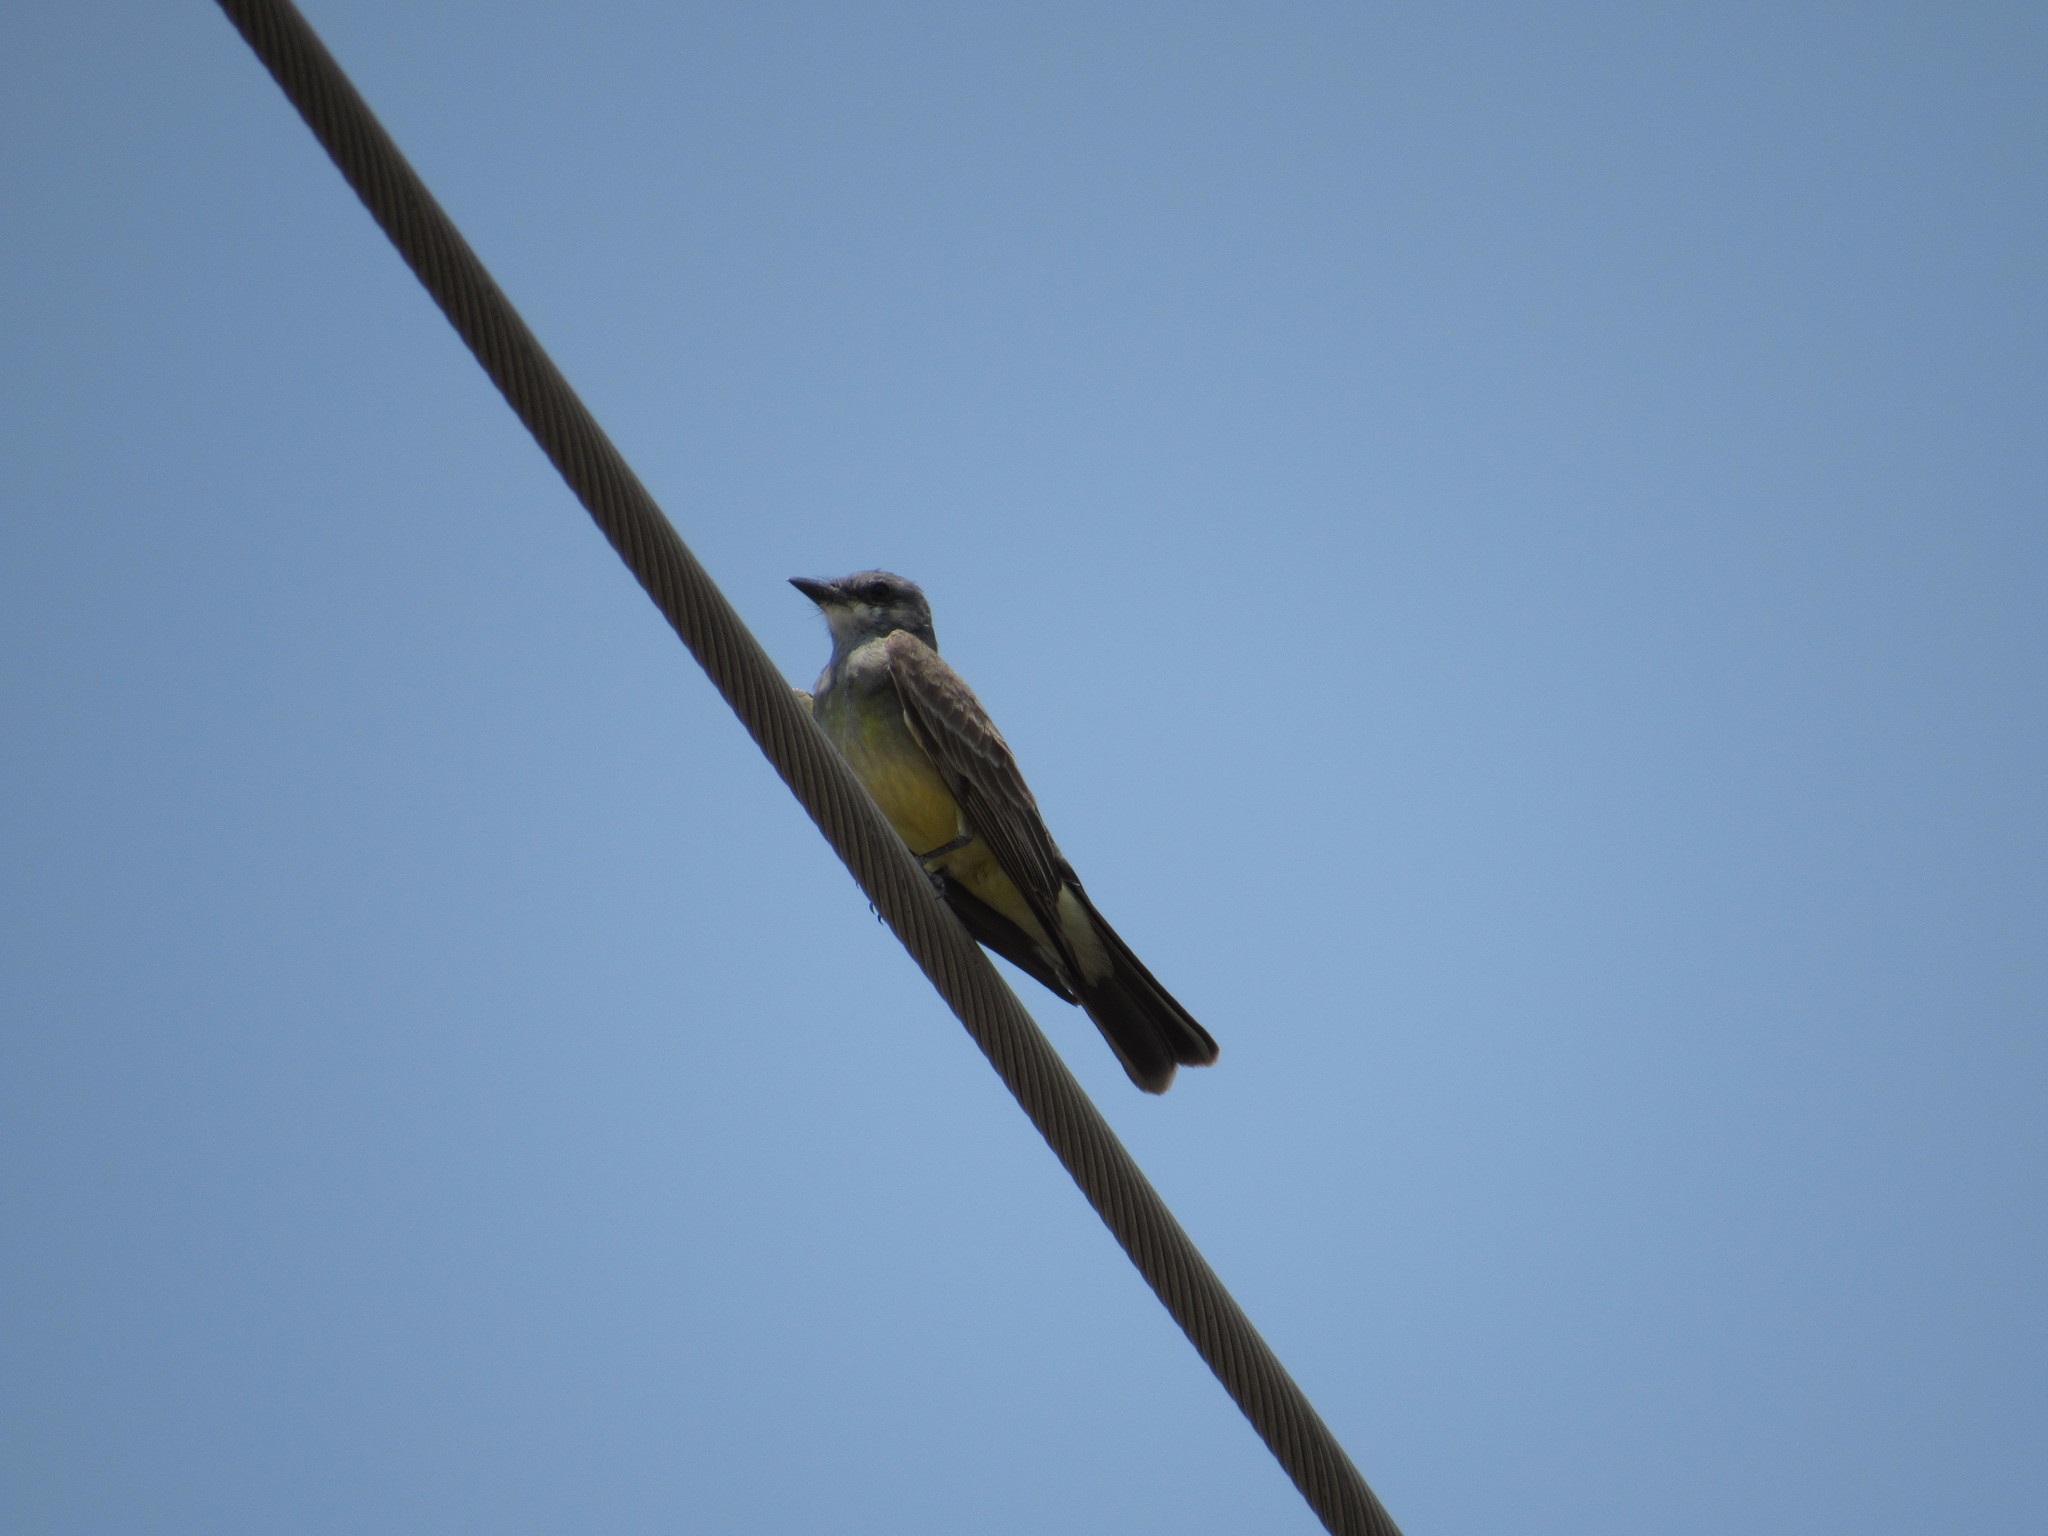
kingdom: Animalia
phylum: Chordata
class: Aves
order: Passeriformes
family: Tyrannidae
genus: Tyrannus
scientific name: Tyrannus vociferans
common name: Cassin's kingbird
